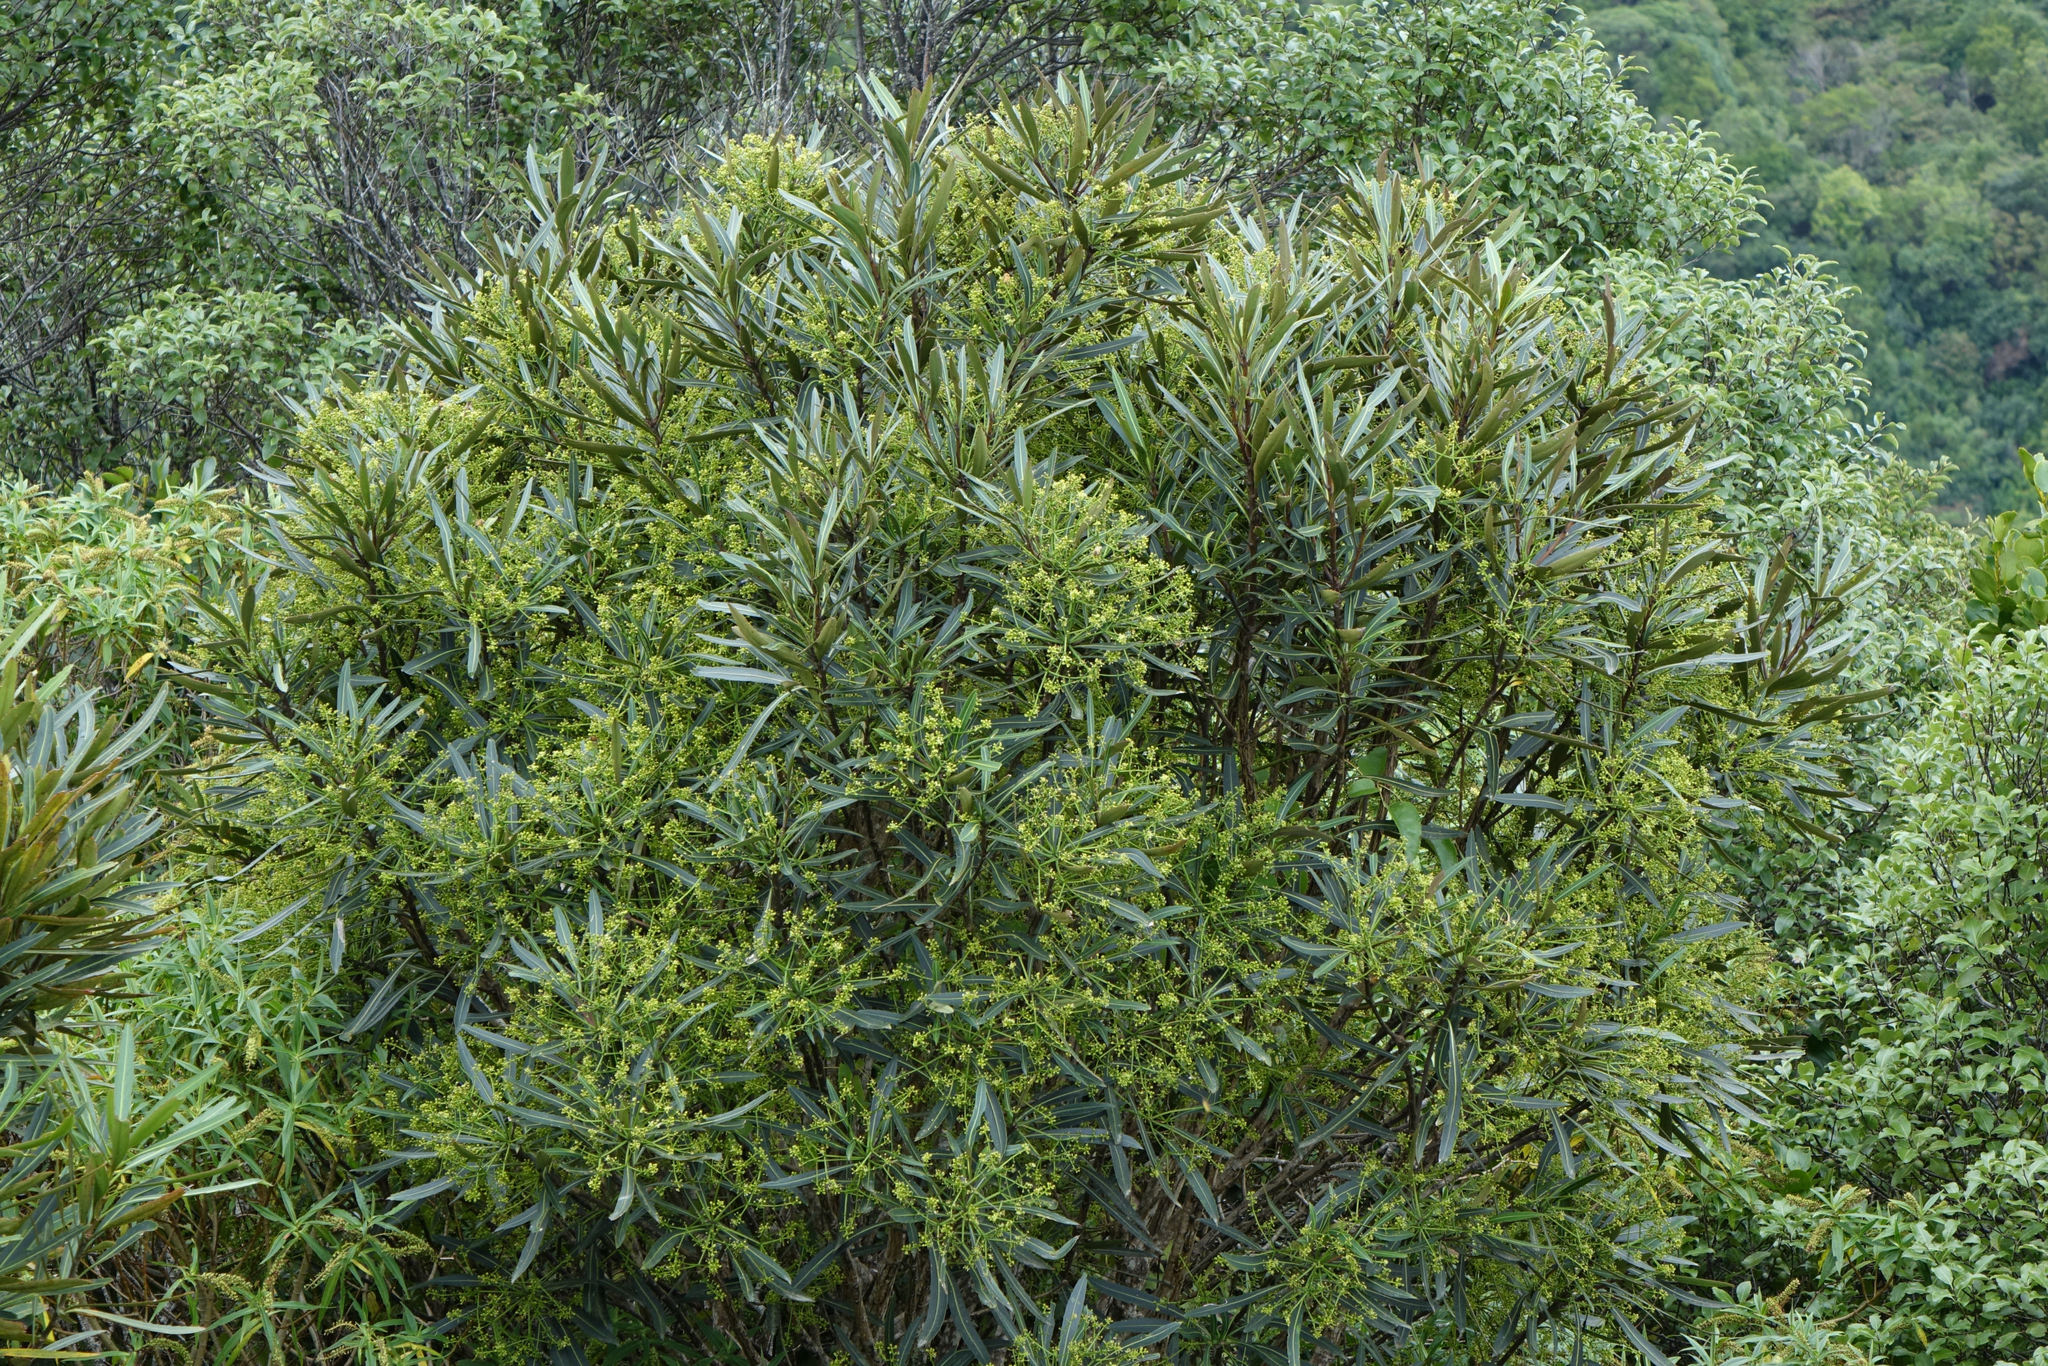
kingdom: Plantae
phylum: Tracheophyta
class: Magnoliopsida
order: Apiales
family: Araliaceae
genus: Pseudopanax
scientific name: Pseudopanax crassifolius
